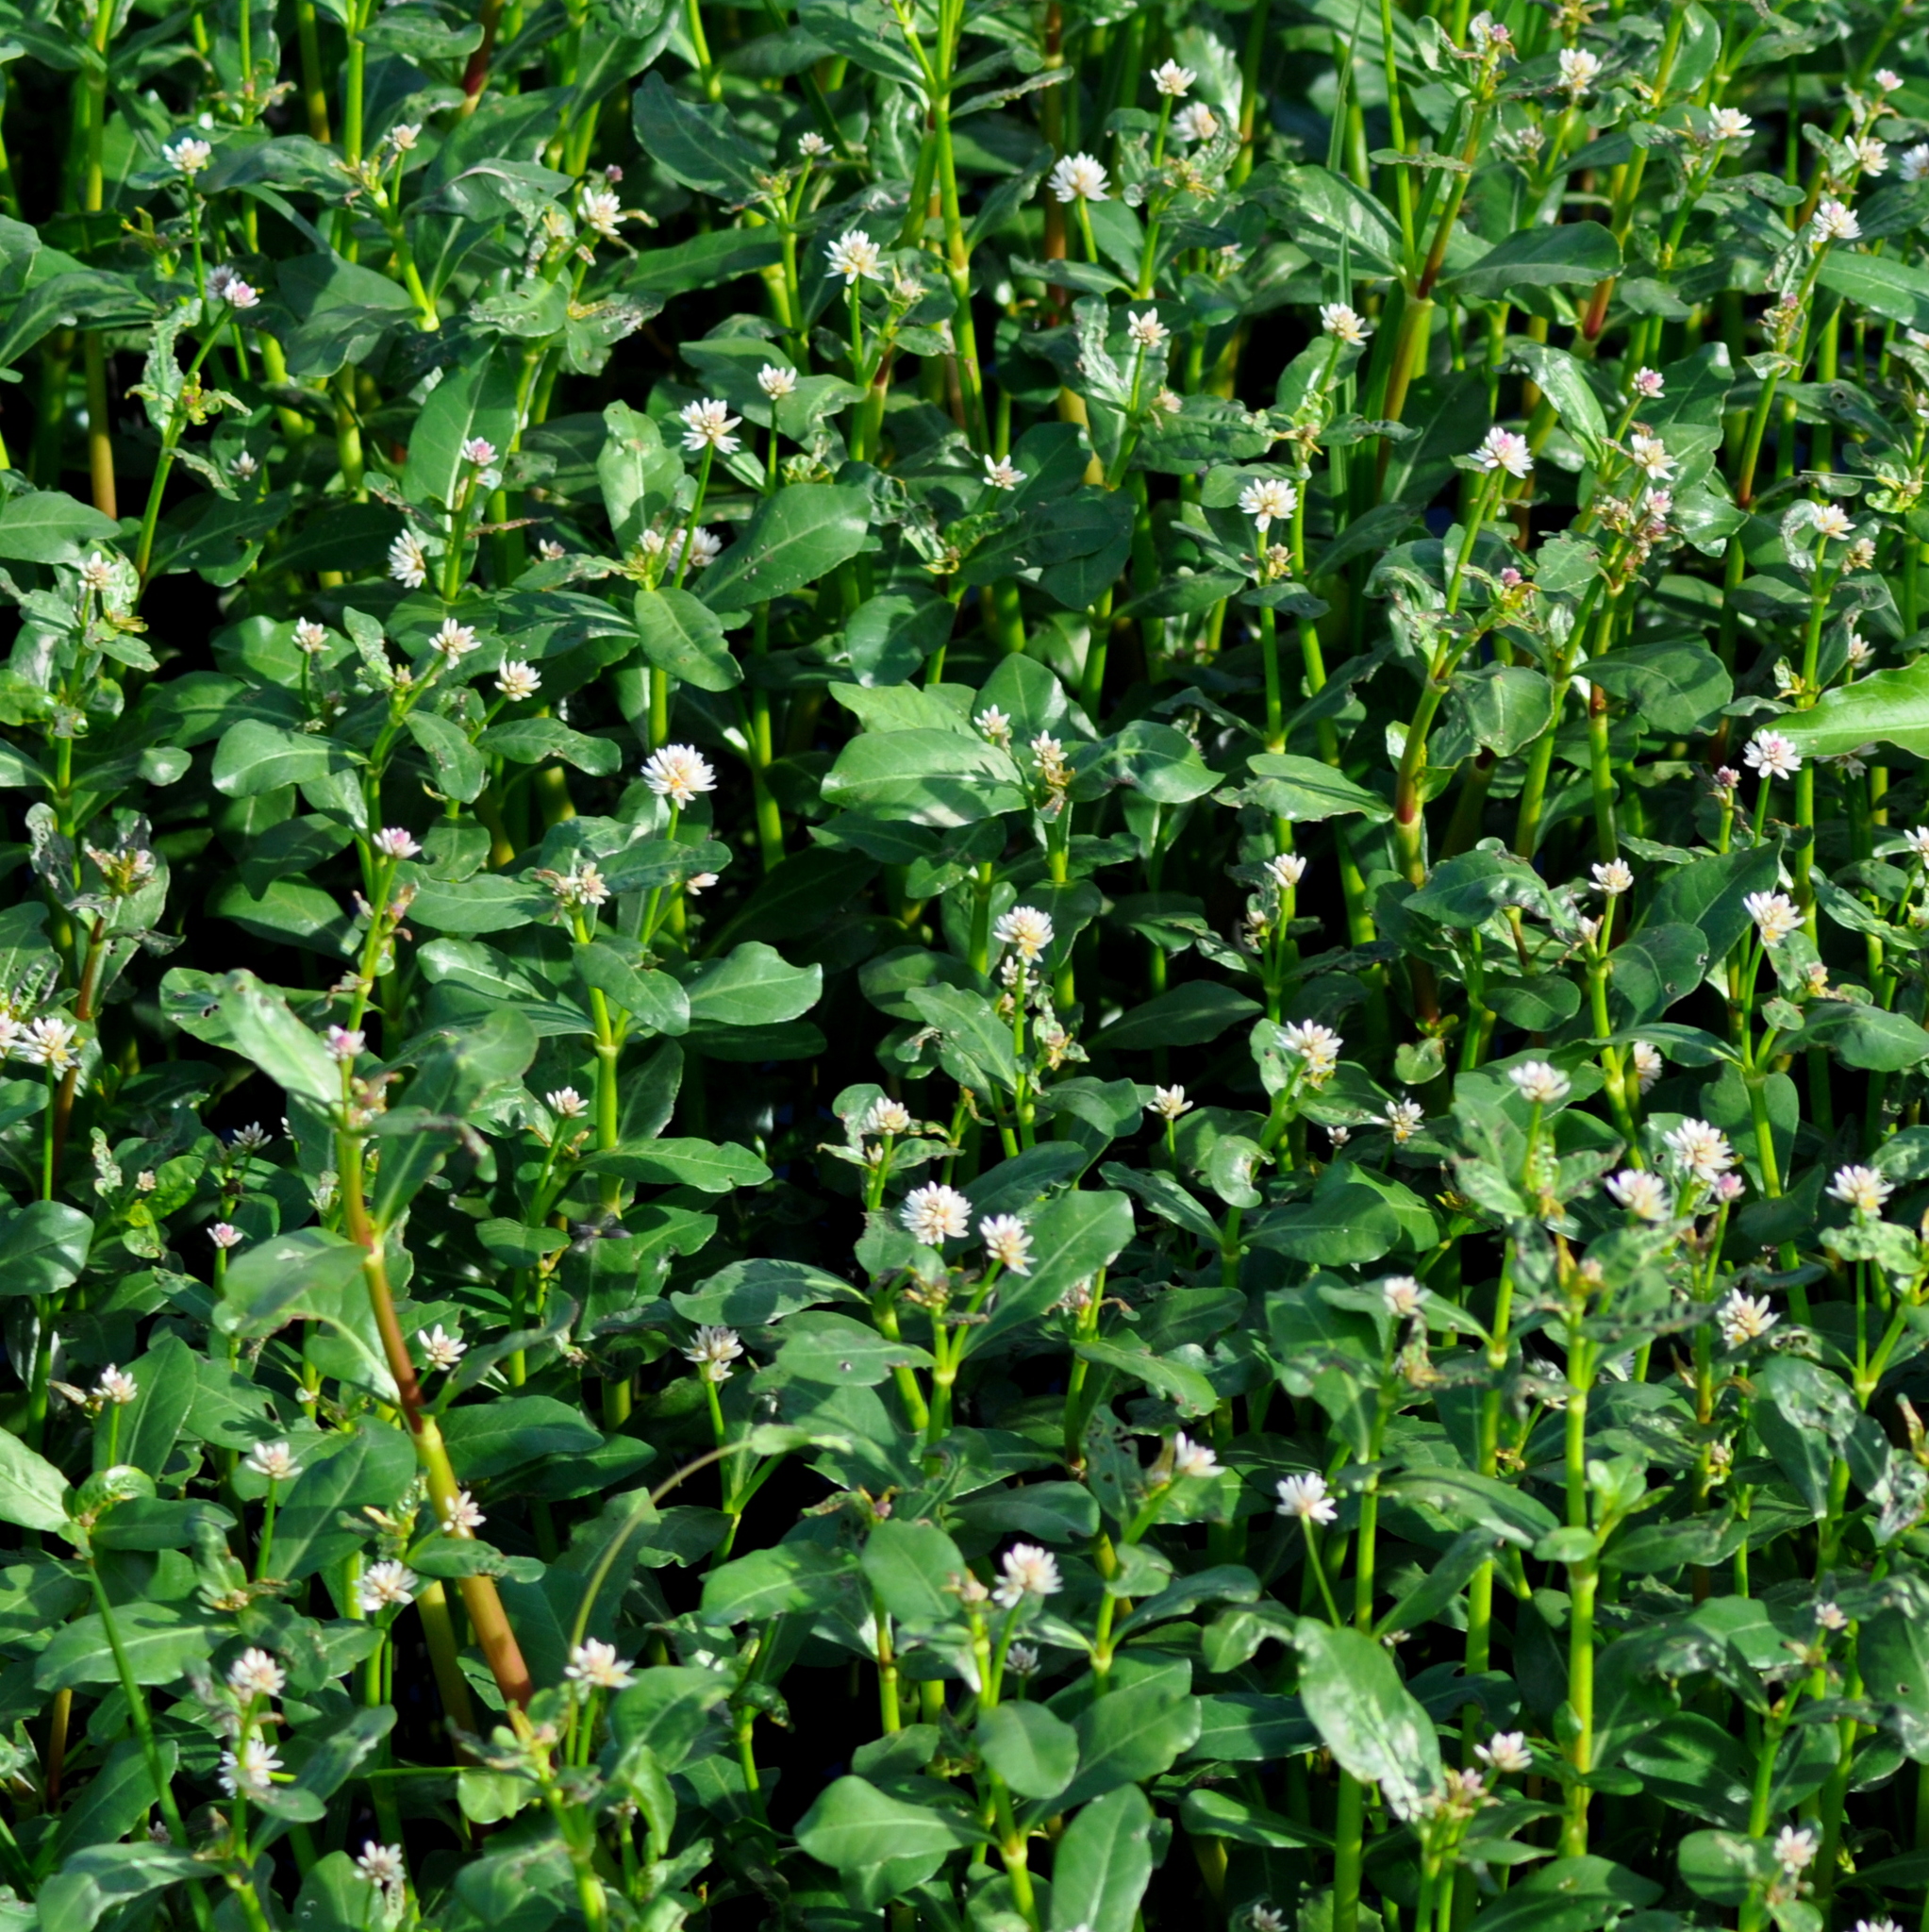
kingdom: Plantae
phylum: Tracheophyta
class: Magnoliopsida
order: Caryophyllales
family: Amaranthaceae
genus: Alternanthera
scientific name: Alternanthera philoxeroides
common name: Alligatorweed
